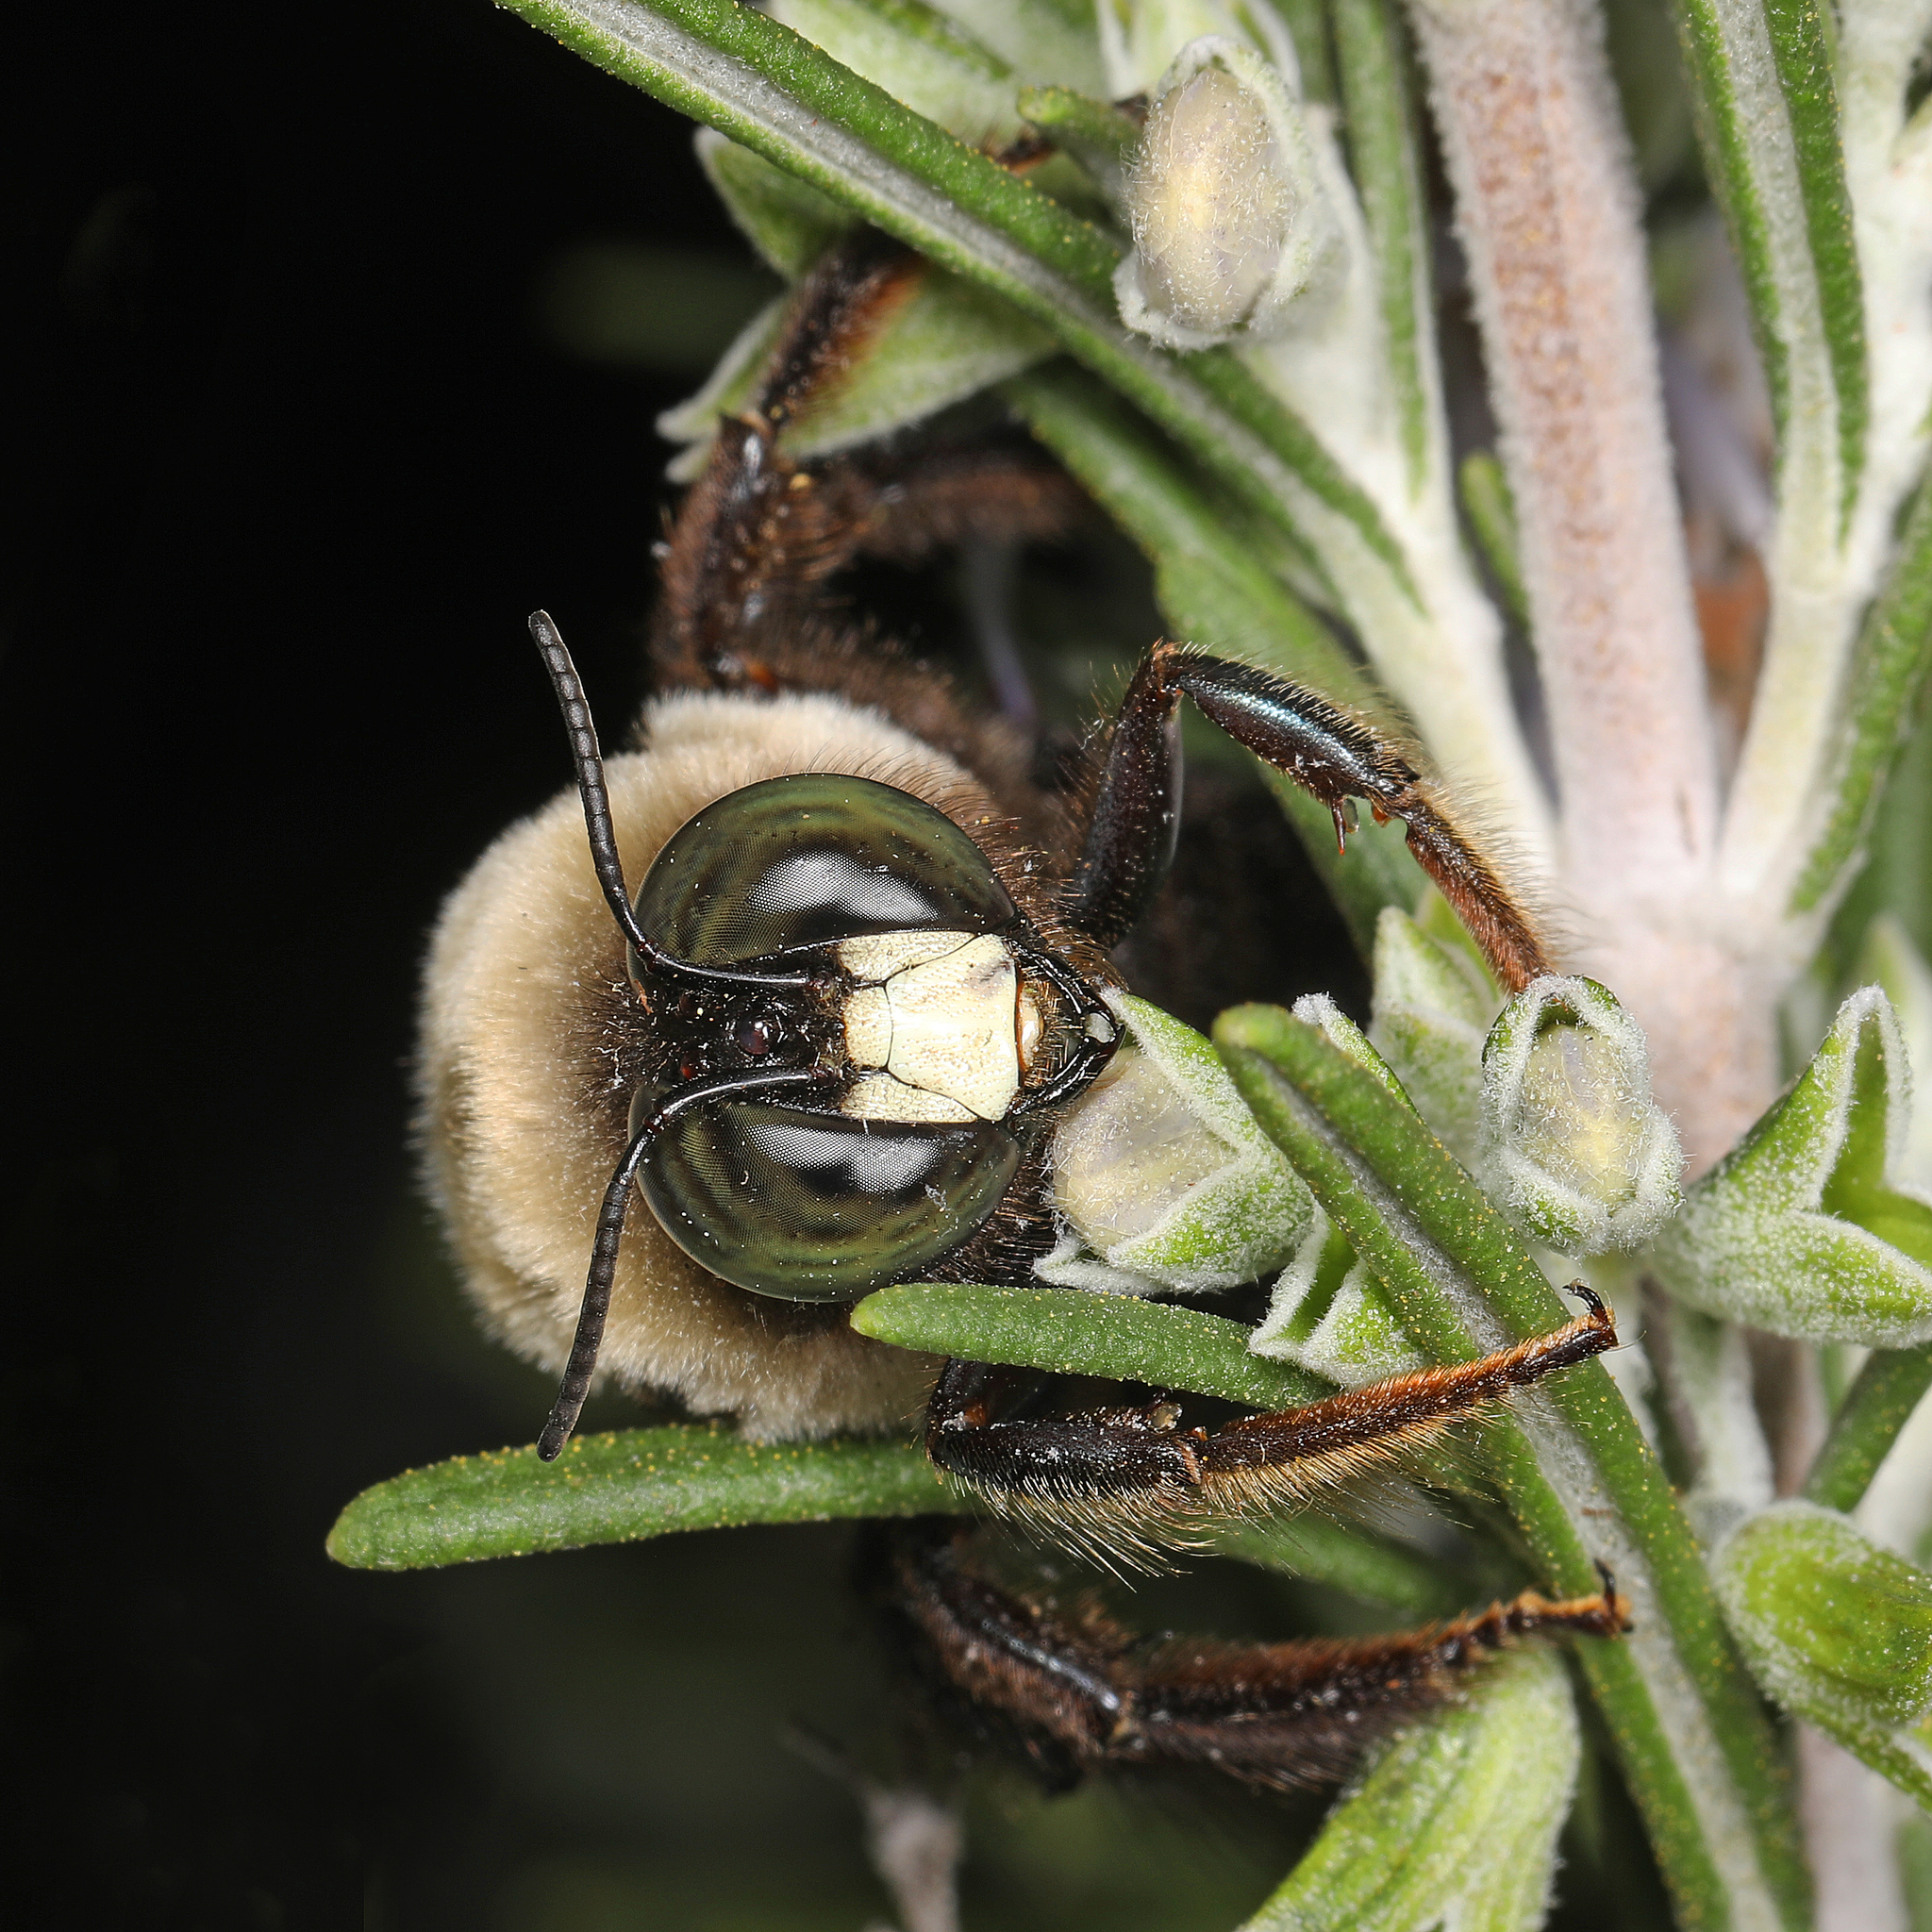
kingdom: Animalia
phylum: Arthropoda
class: Insecta
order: Hymenoptera
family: Apidae
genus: Xylocopa
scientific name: Xylocopa virginica
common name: Carpenter bee
